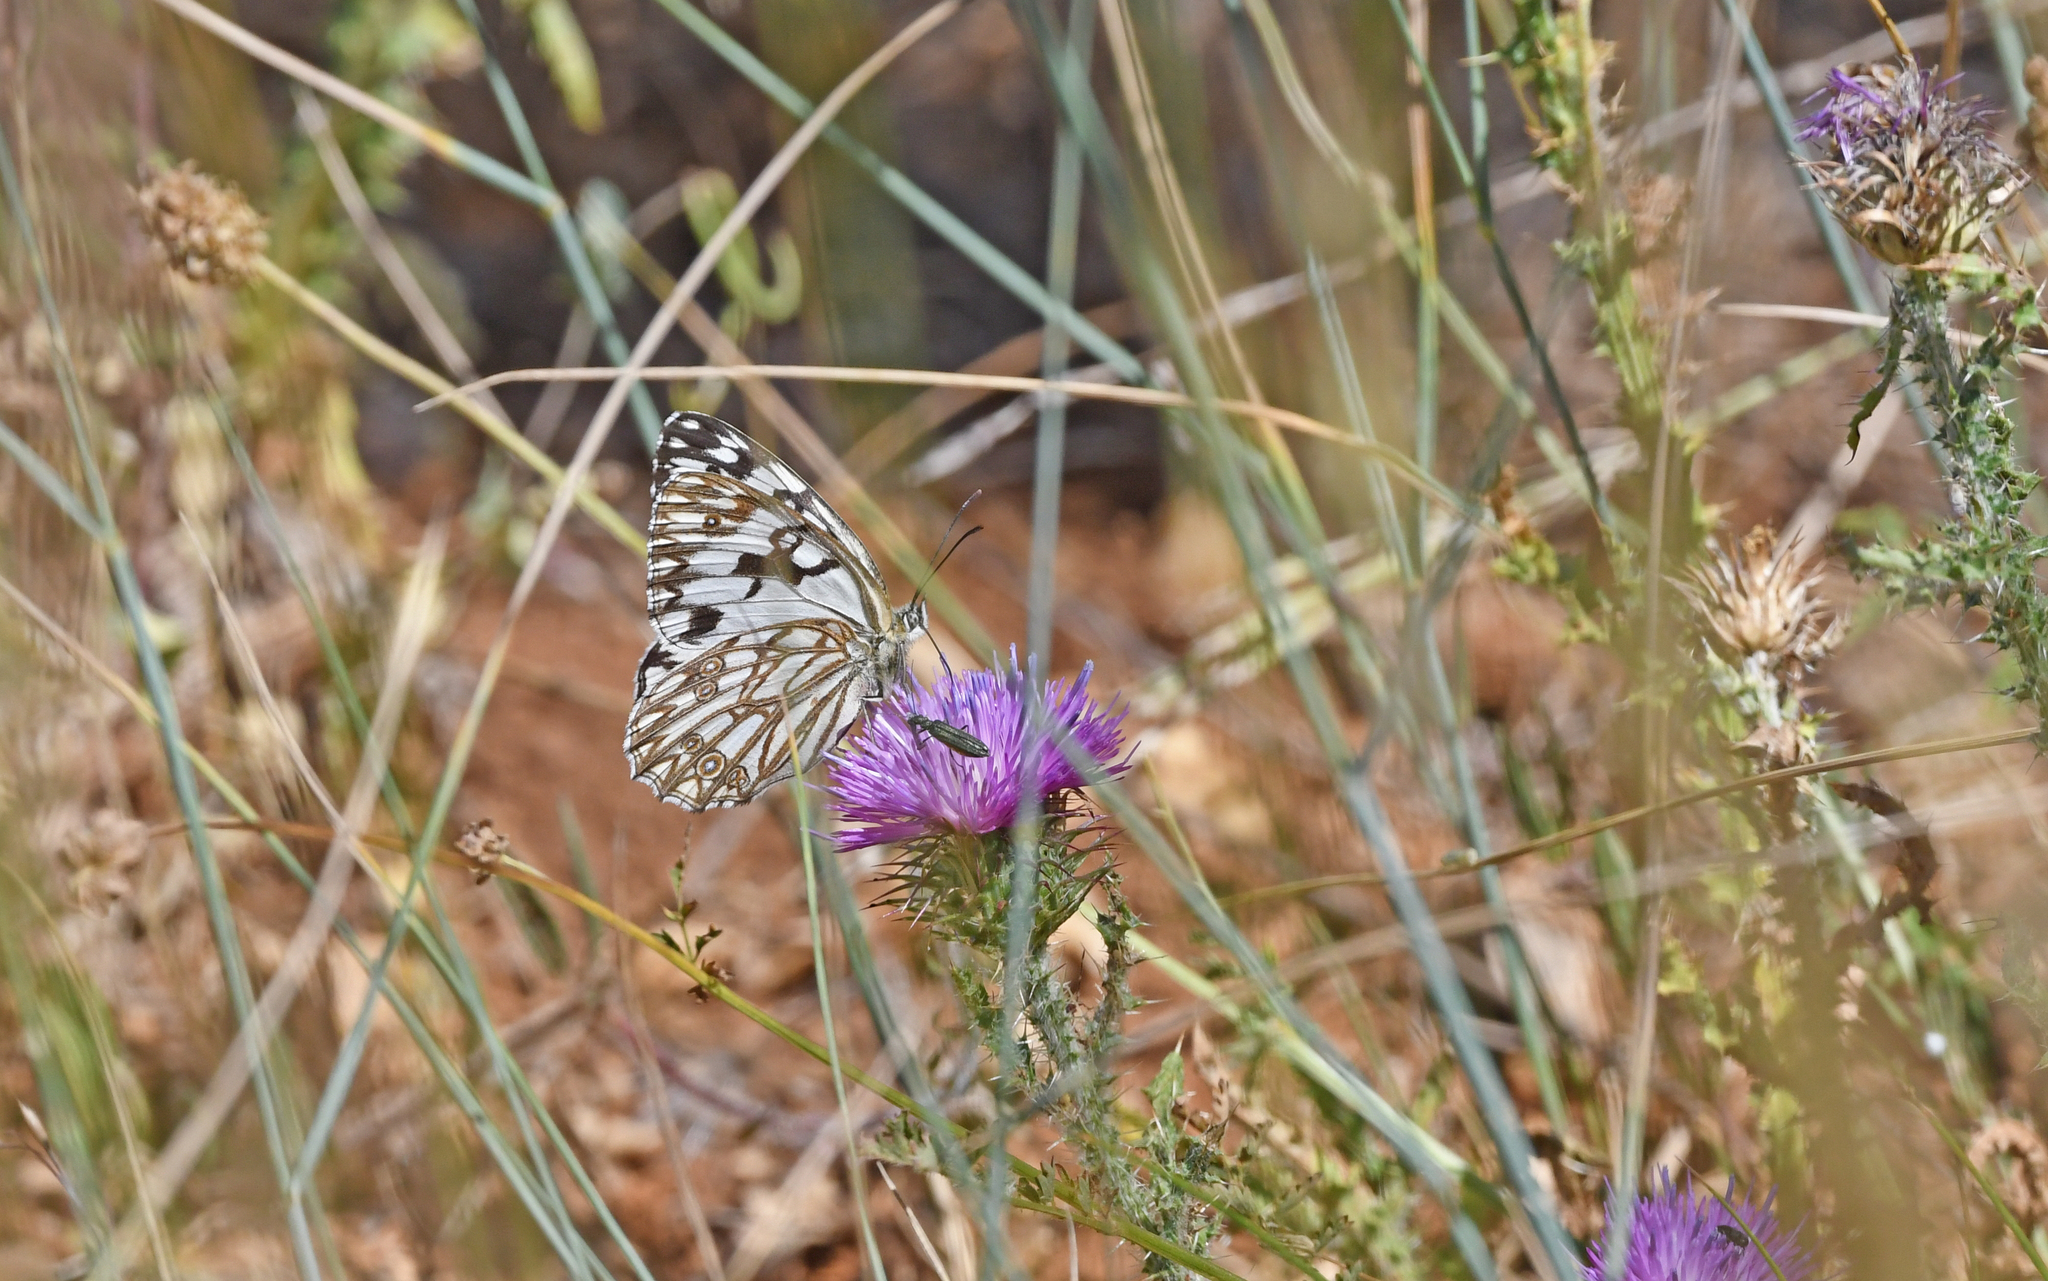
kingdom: Animalia
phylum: Arthropoda
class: Insecta
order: Lepidoptera
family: Nymphalidae
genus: Melanargia
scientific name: Melanargia occitanica
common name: Western marbled white
